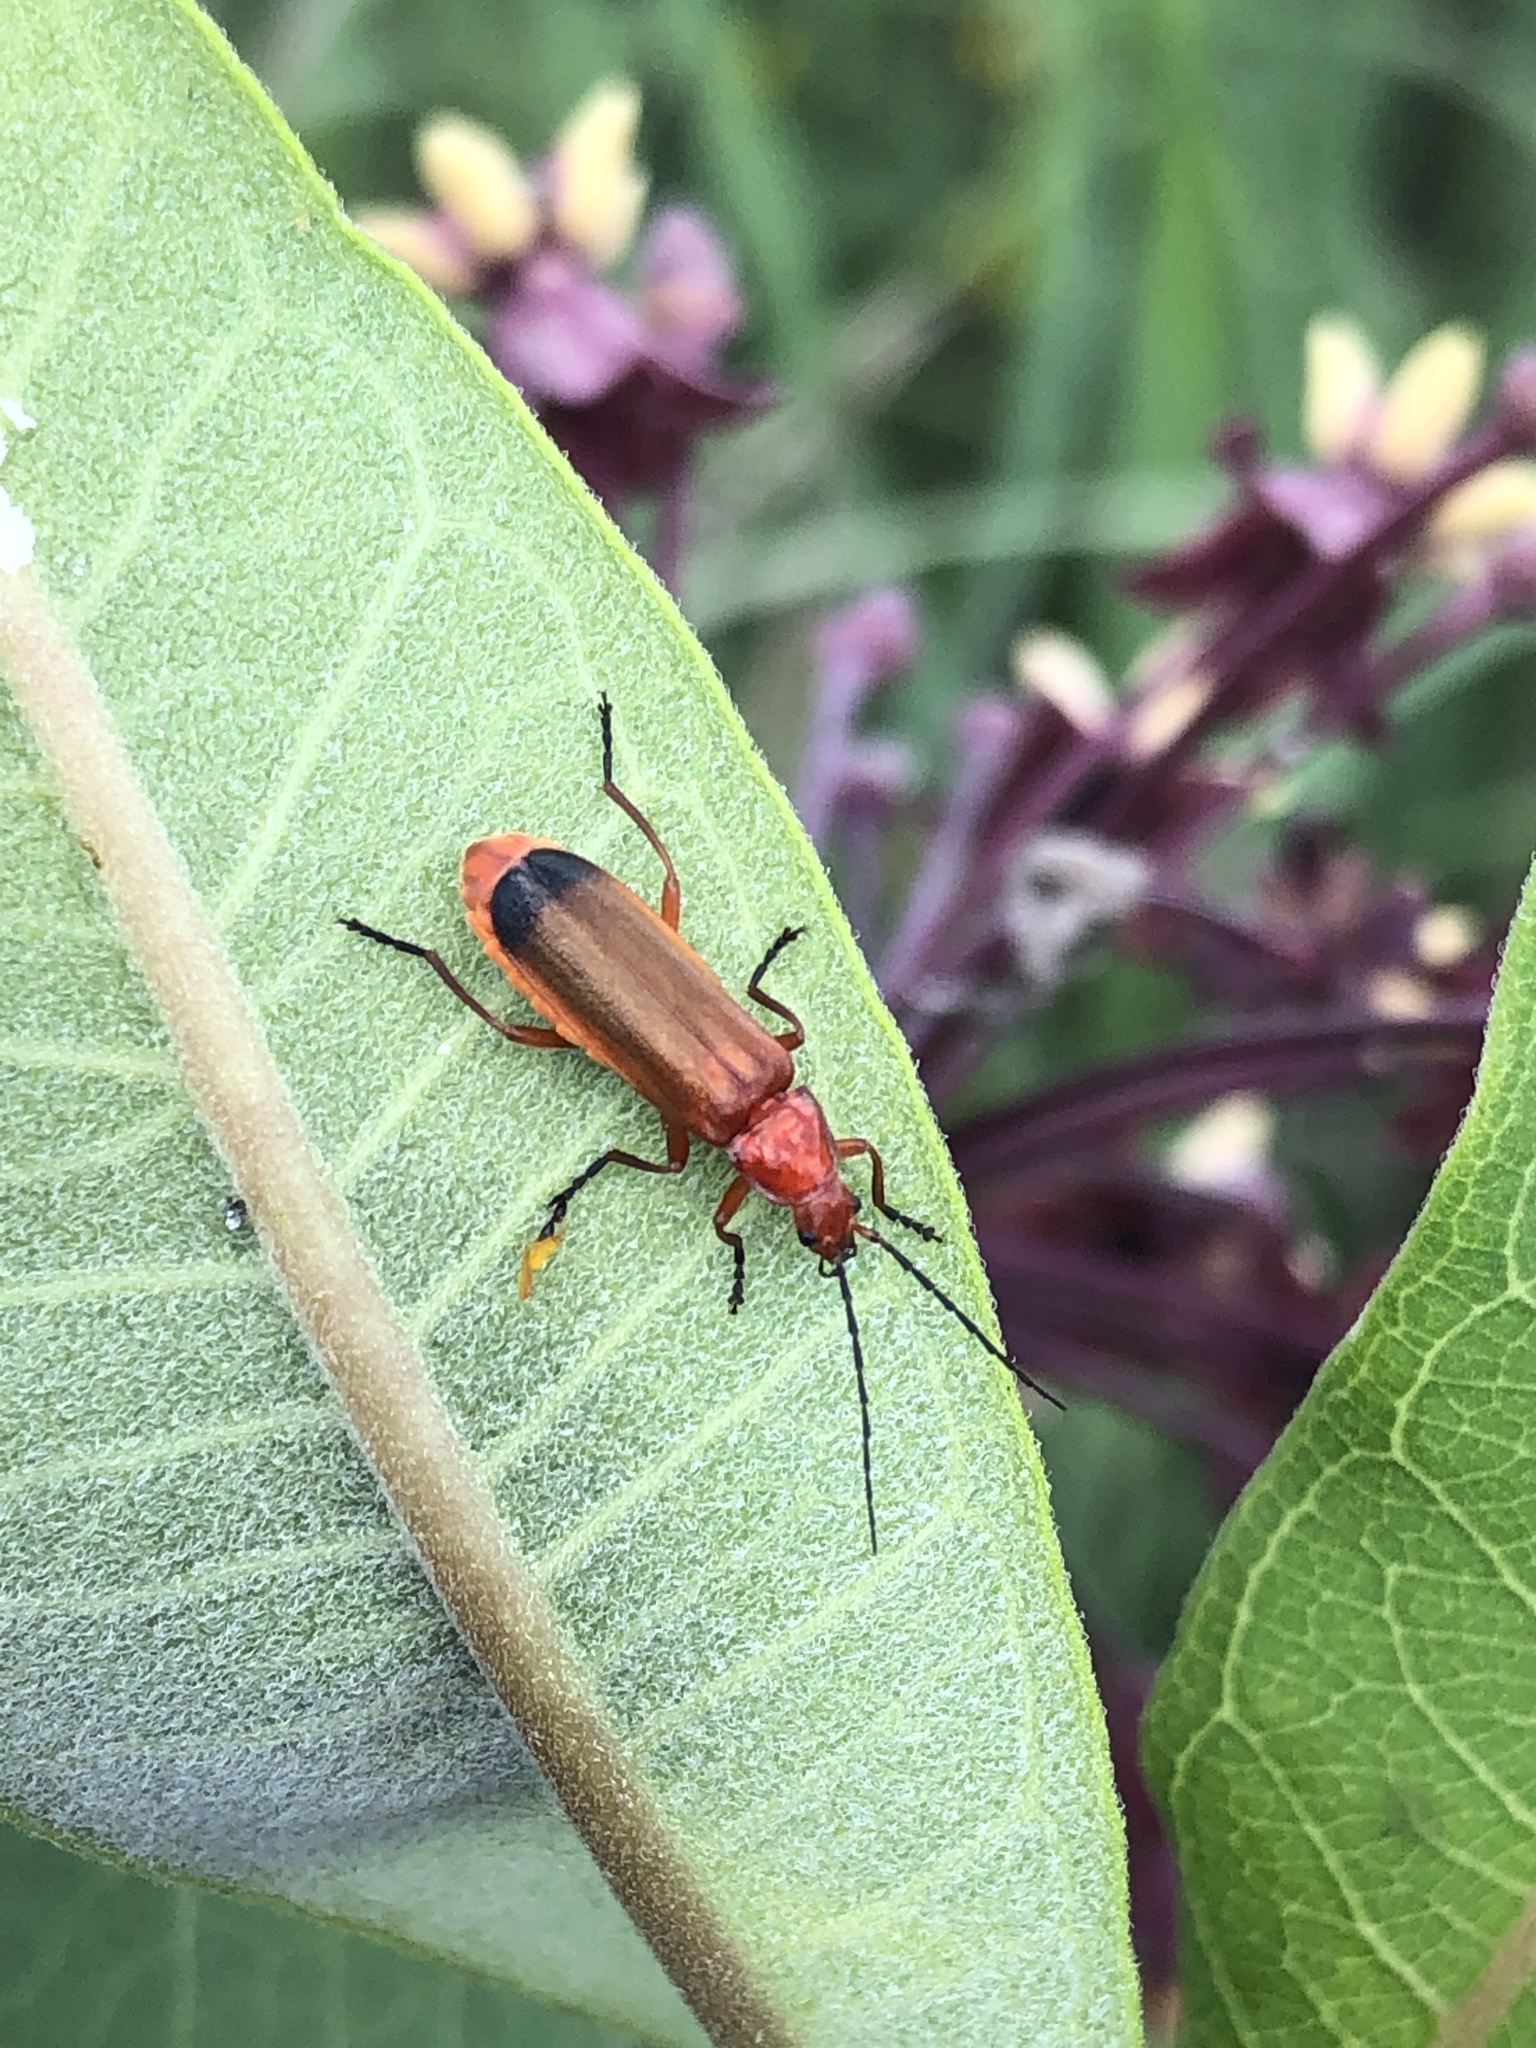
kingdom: Animalia
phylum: Arthropoda
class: Insecta
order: Coleoptera
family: Cantharidae
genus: Rhagonycha
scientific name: Rhagonycha fulva
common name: Common red soldier beetle
